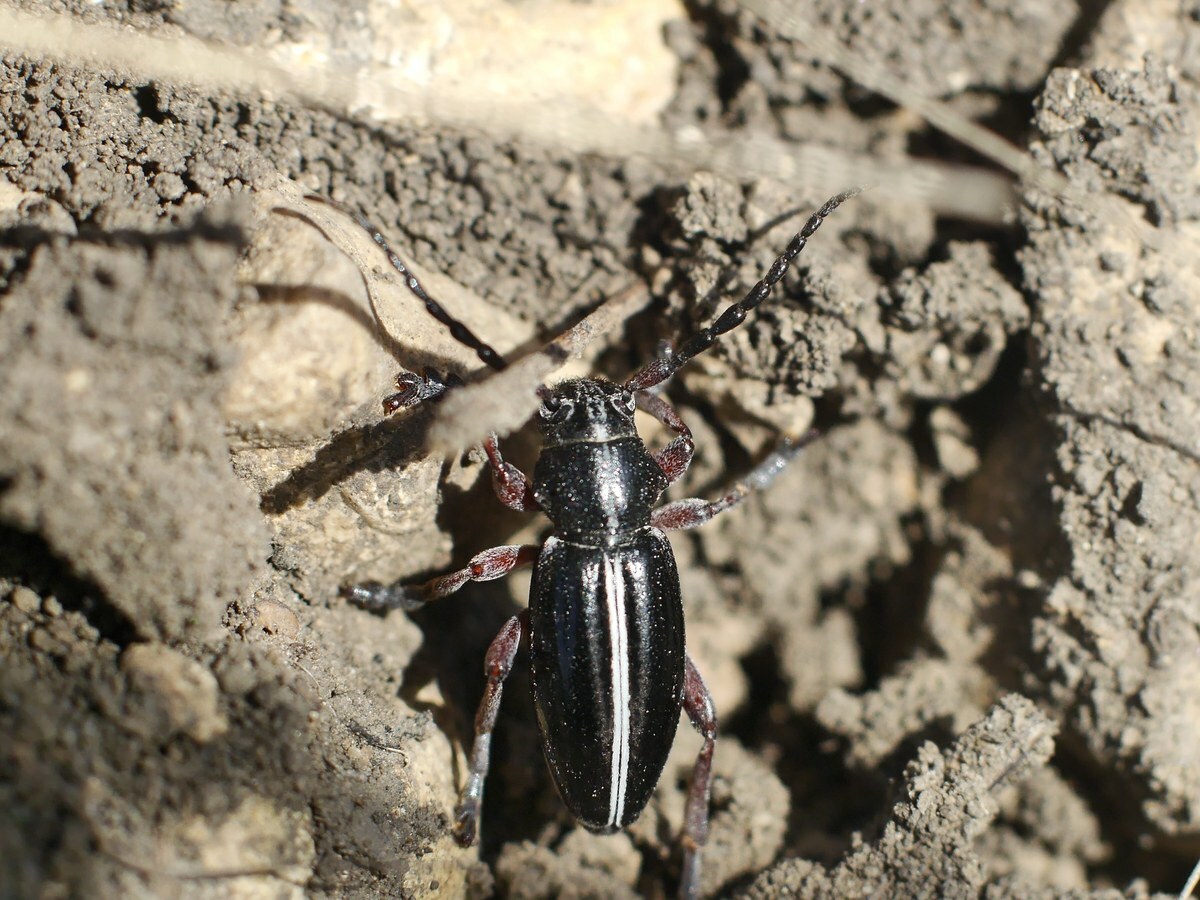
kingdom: Animalia
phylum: Arthropoda
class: Insecta
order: Coleoptera
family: Cerambycidae
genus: Dorcadion
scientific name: Dorcadion cinerarium
